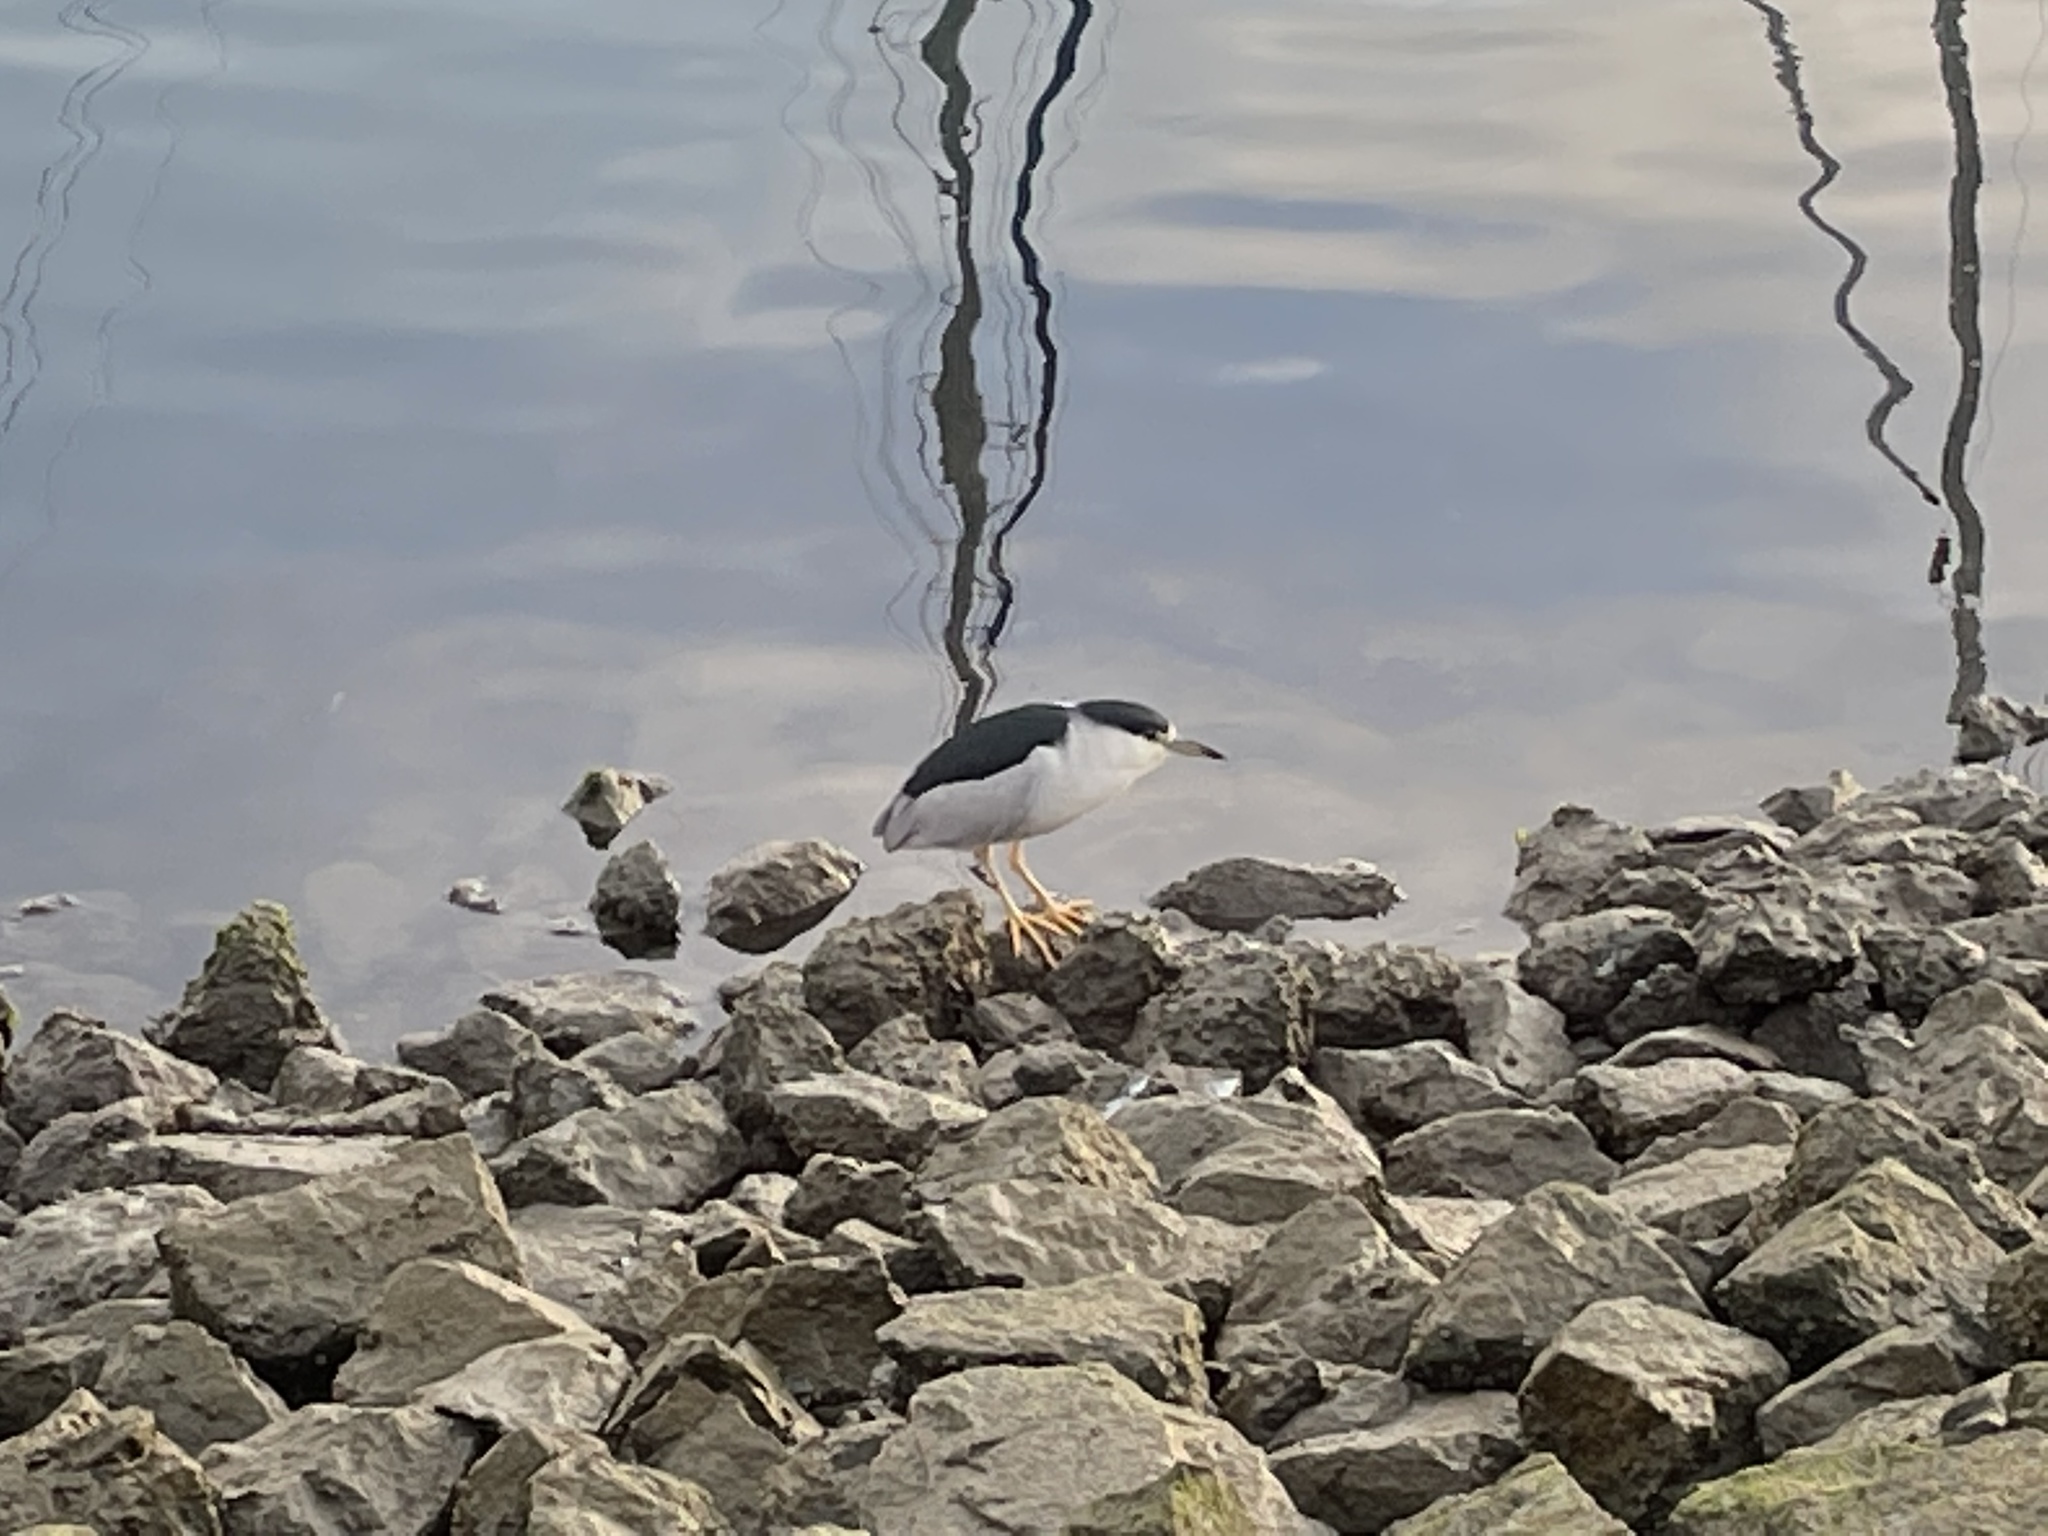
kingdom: Animalia
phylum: Chordata
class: Aves
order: Pelecaniformes
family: Ardeidae
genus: Nycticorax
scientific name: Nycticorax nycticorax
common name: Black-crowned night heron
